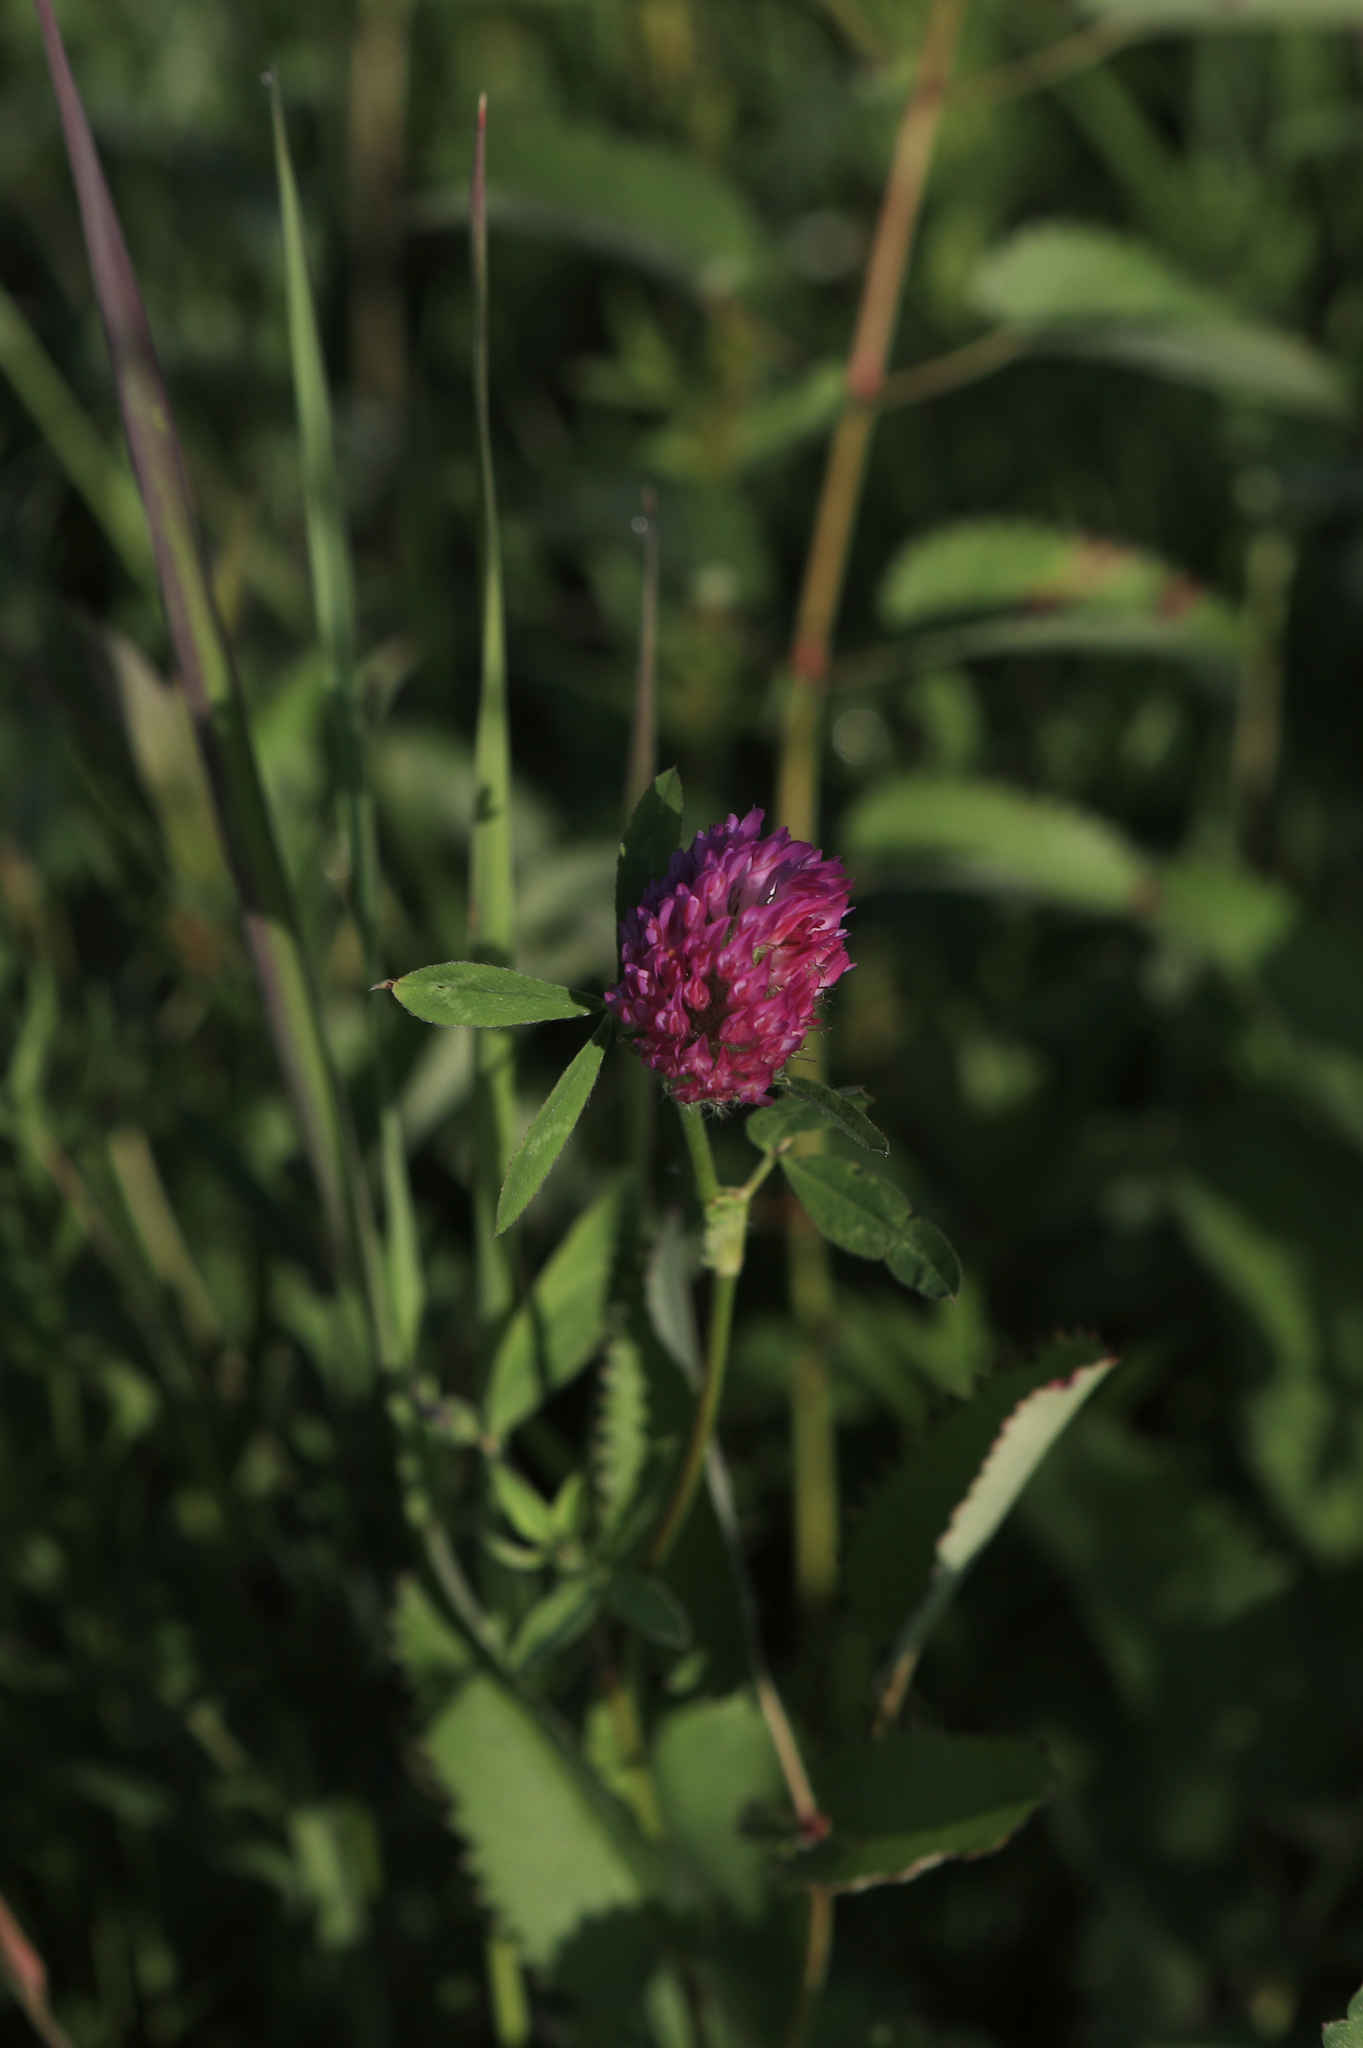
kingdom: Plantae
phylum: Tracheophyta
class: Magnoliopsida
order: Fabales
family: Fabaceae
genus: Trifolium
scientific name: Trifolium pratense
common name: Red clover
